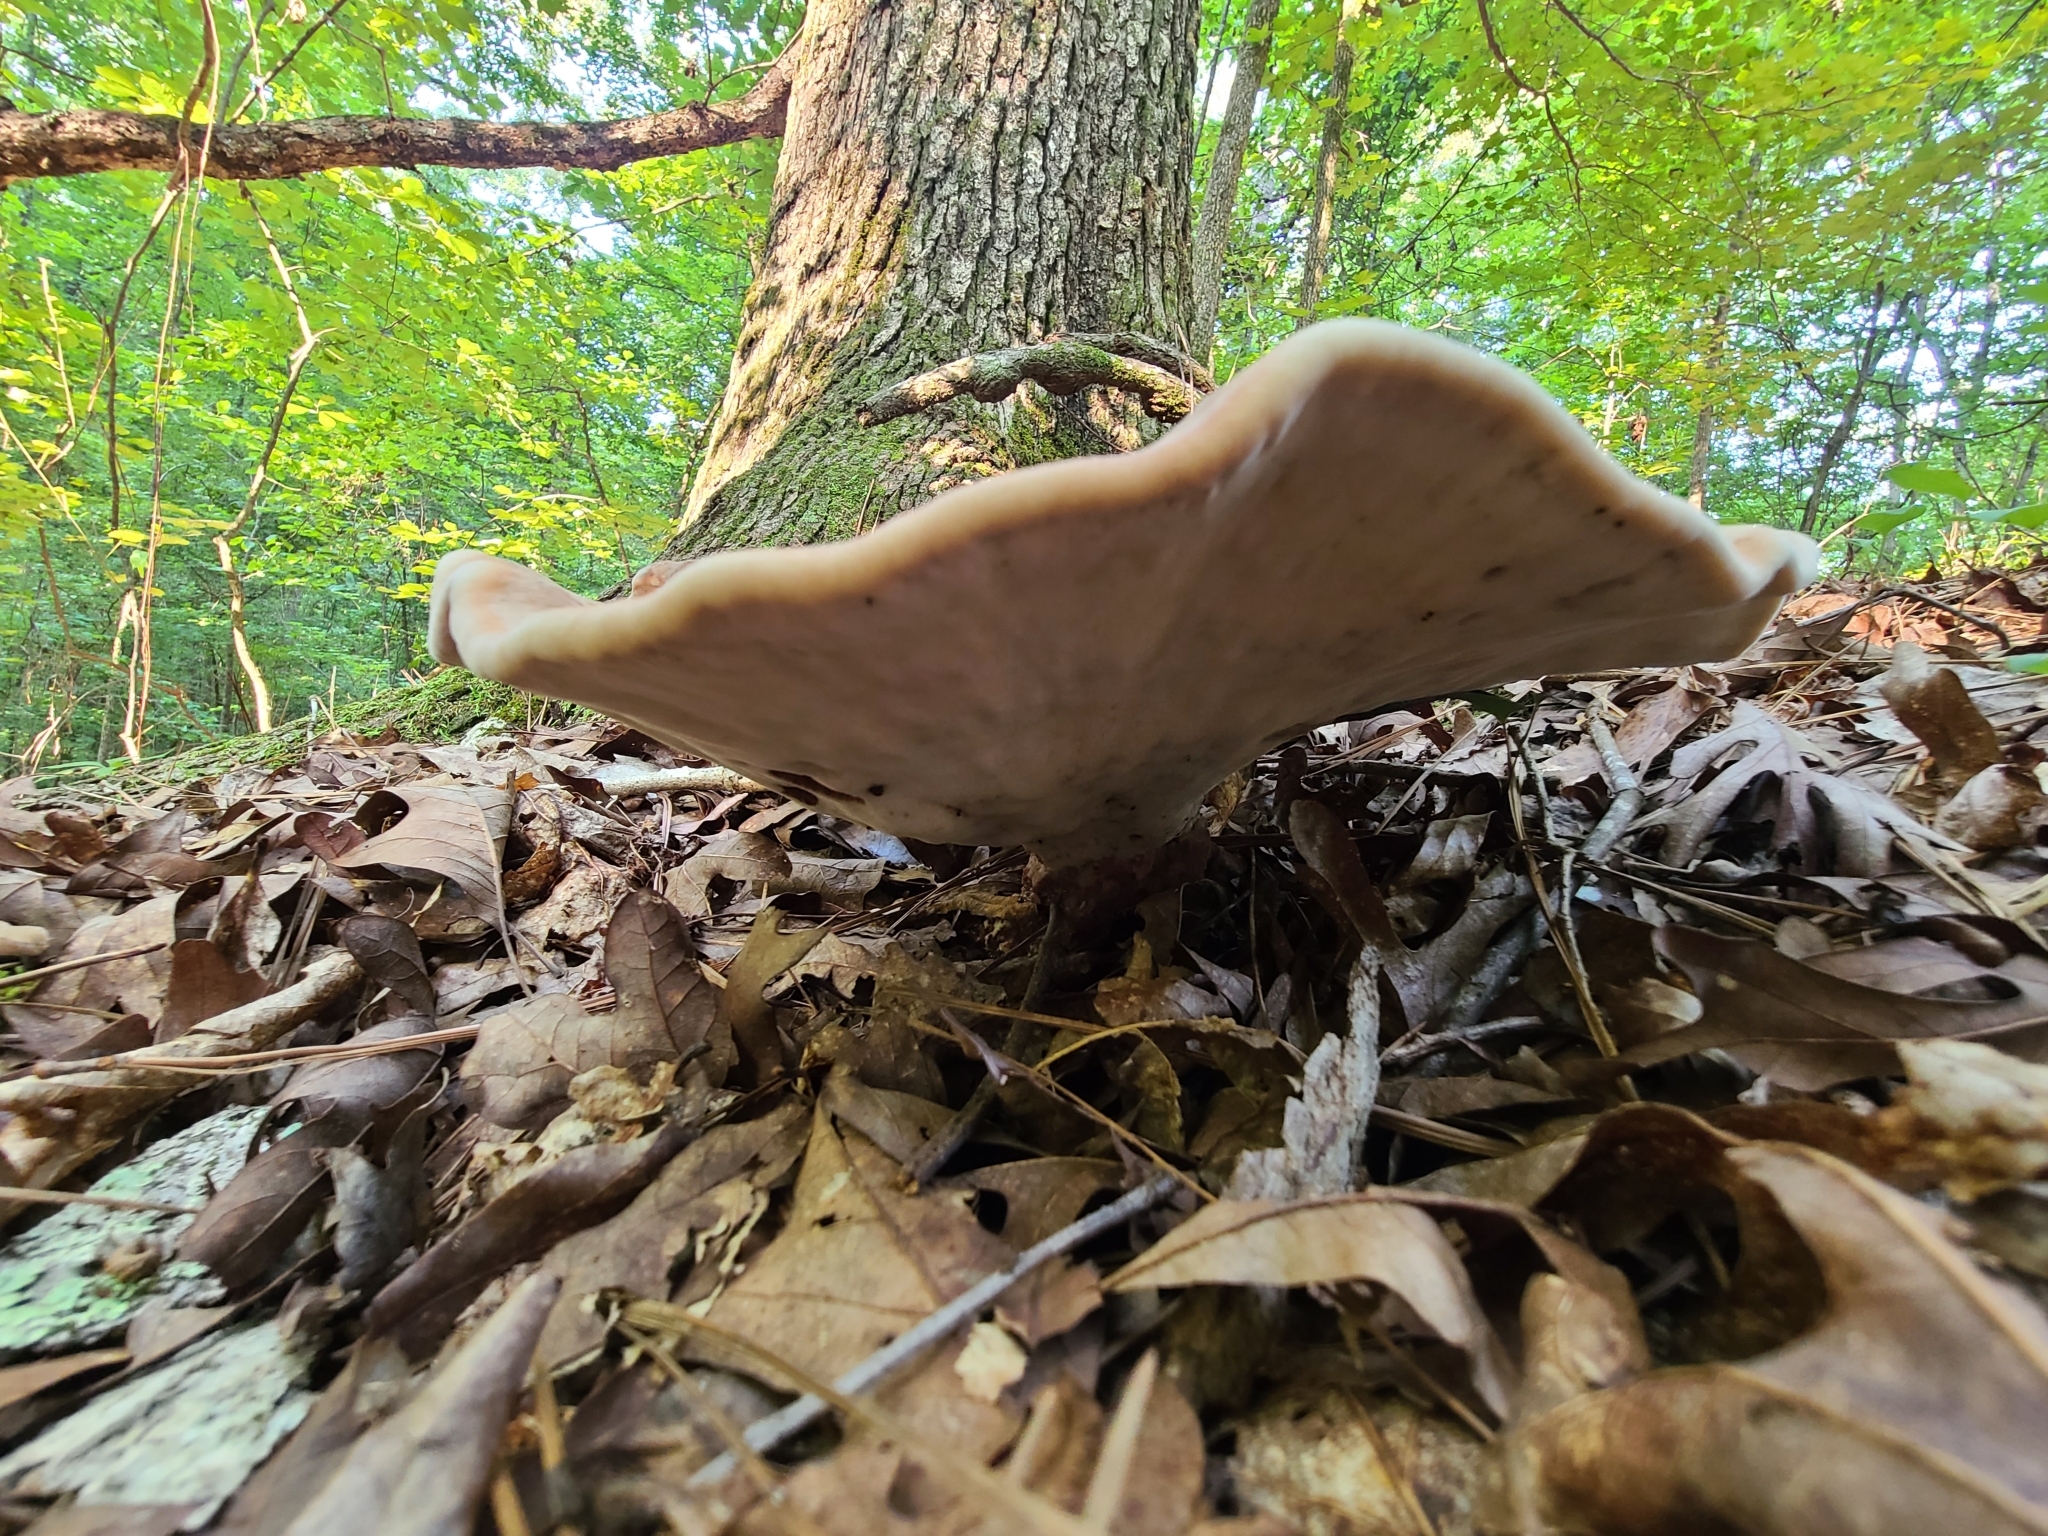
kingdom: Fungi
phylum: Basidiomycota
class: Agaricomycetes
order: Polyporales
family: Laetiporaceae
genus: Berkcurtia
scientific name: Berkcurtia persicina
